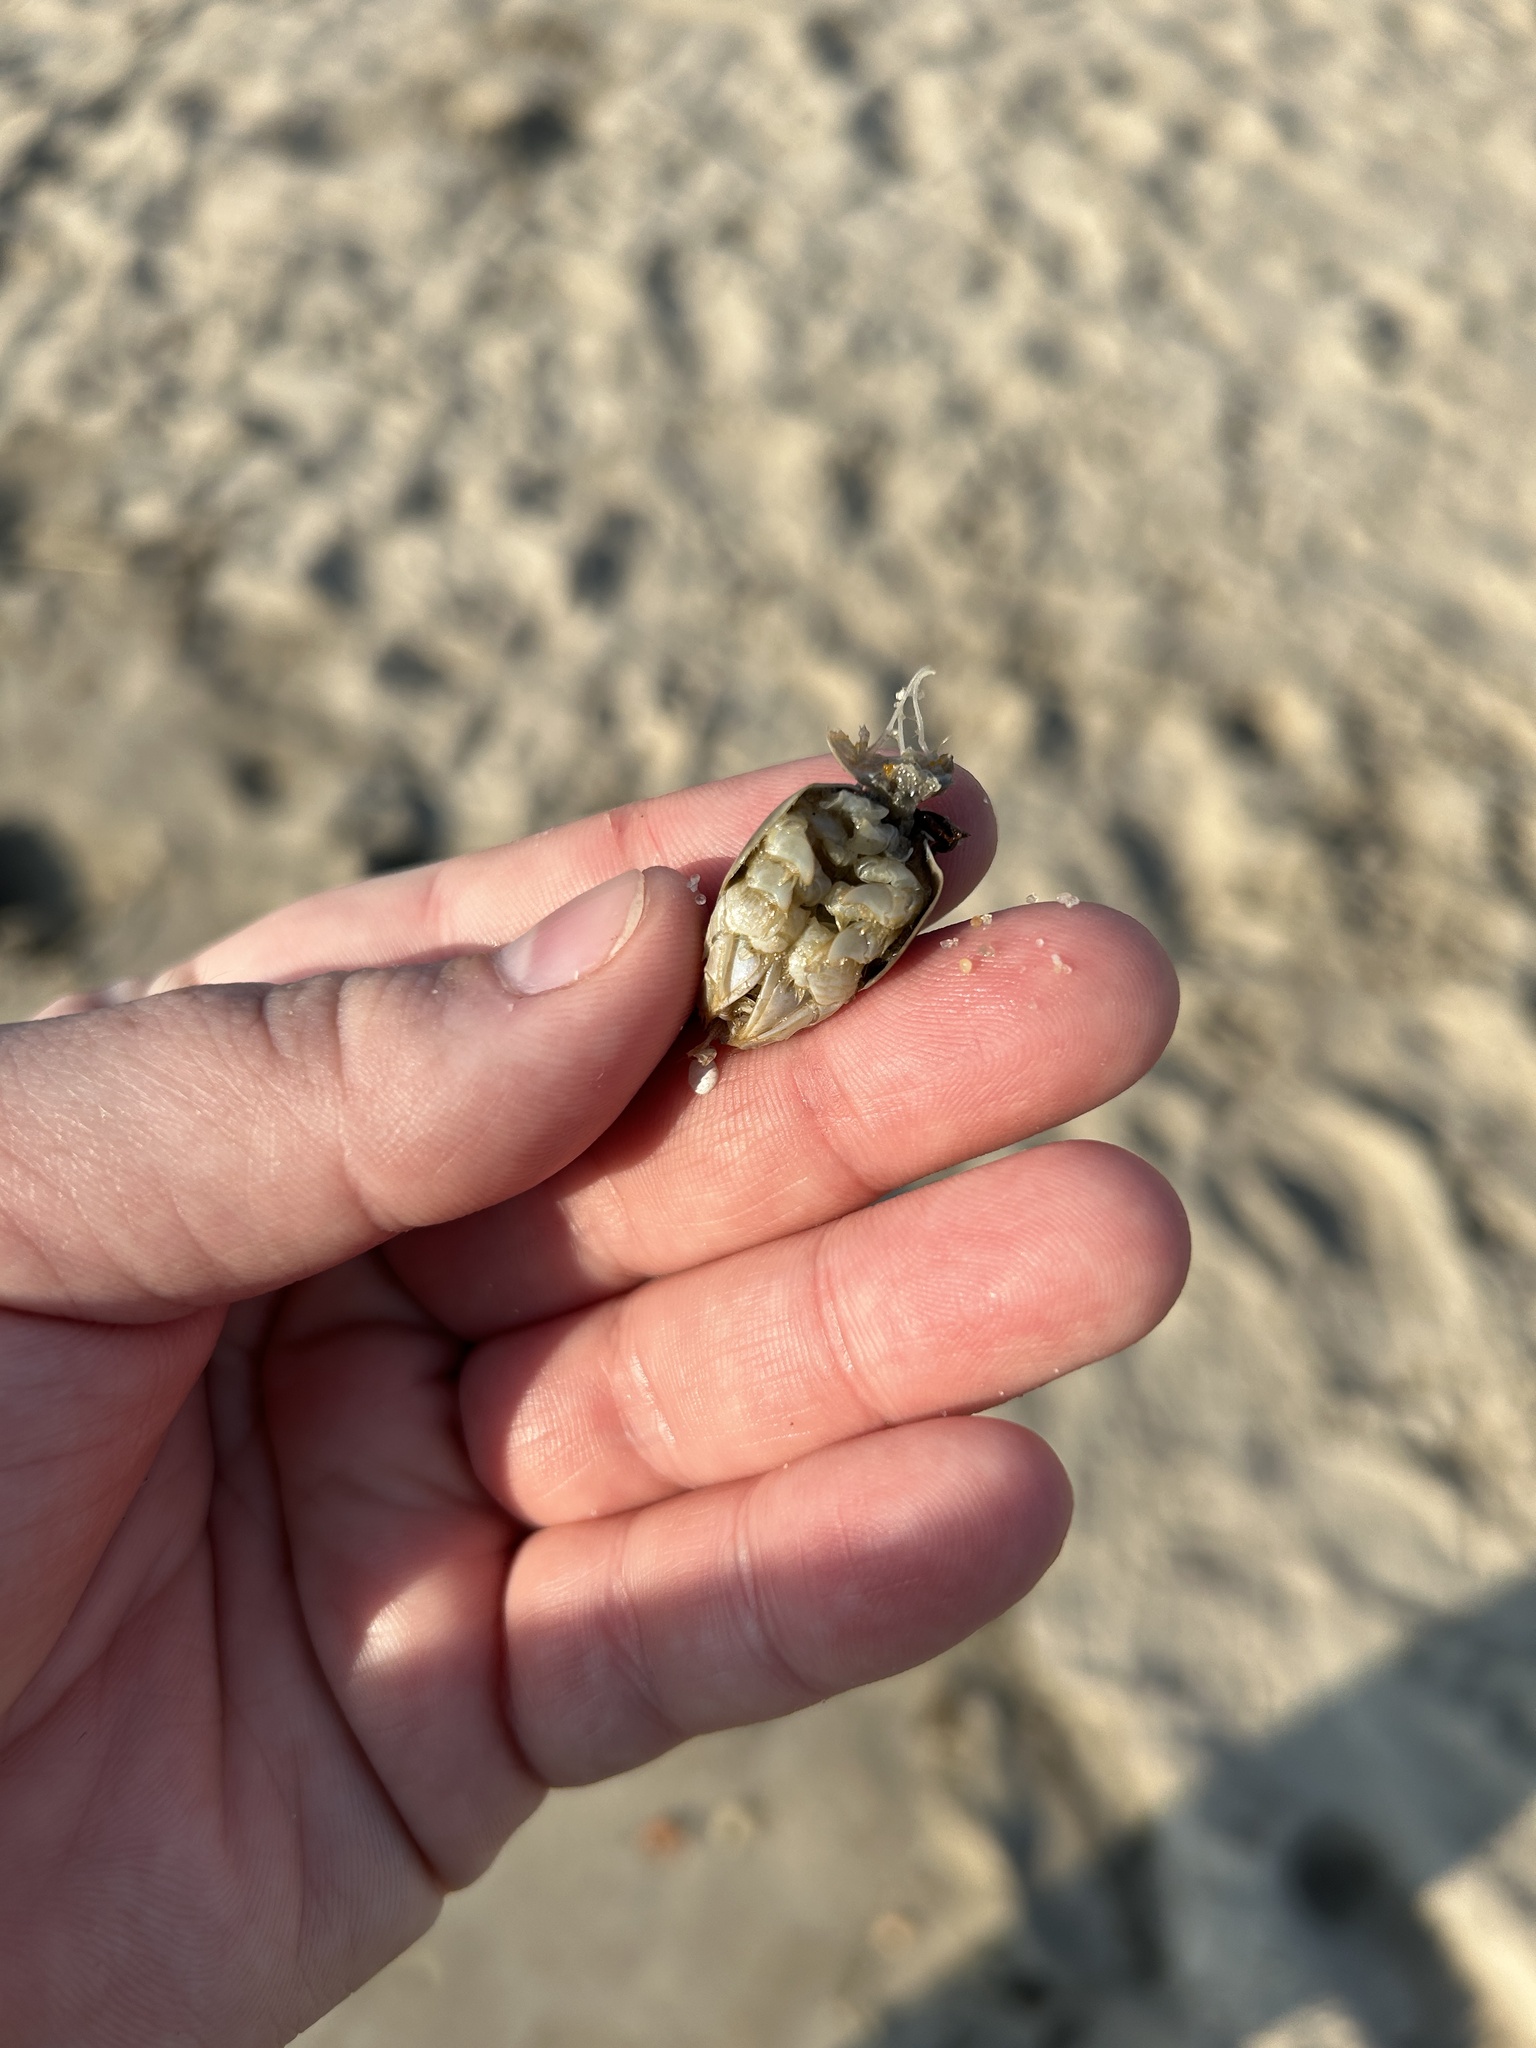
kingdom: Animalia
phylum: Arthropoda
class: Malacostraca
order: Decapoda
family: Hippidae
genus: Emerita
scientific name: Emerita talpoida
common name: Atlantic sand crab
